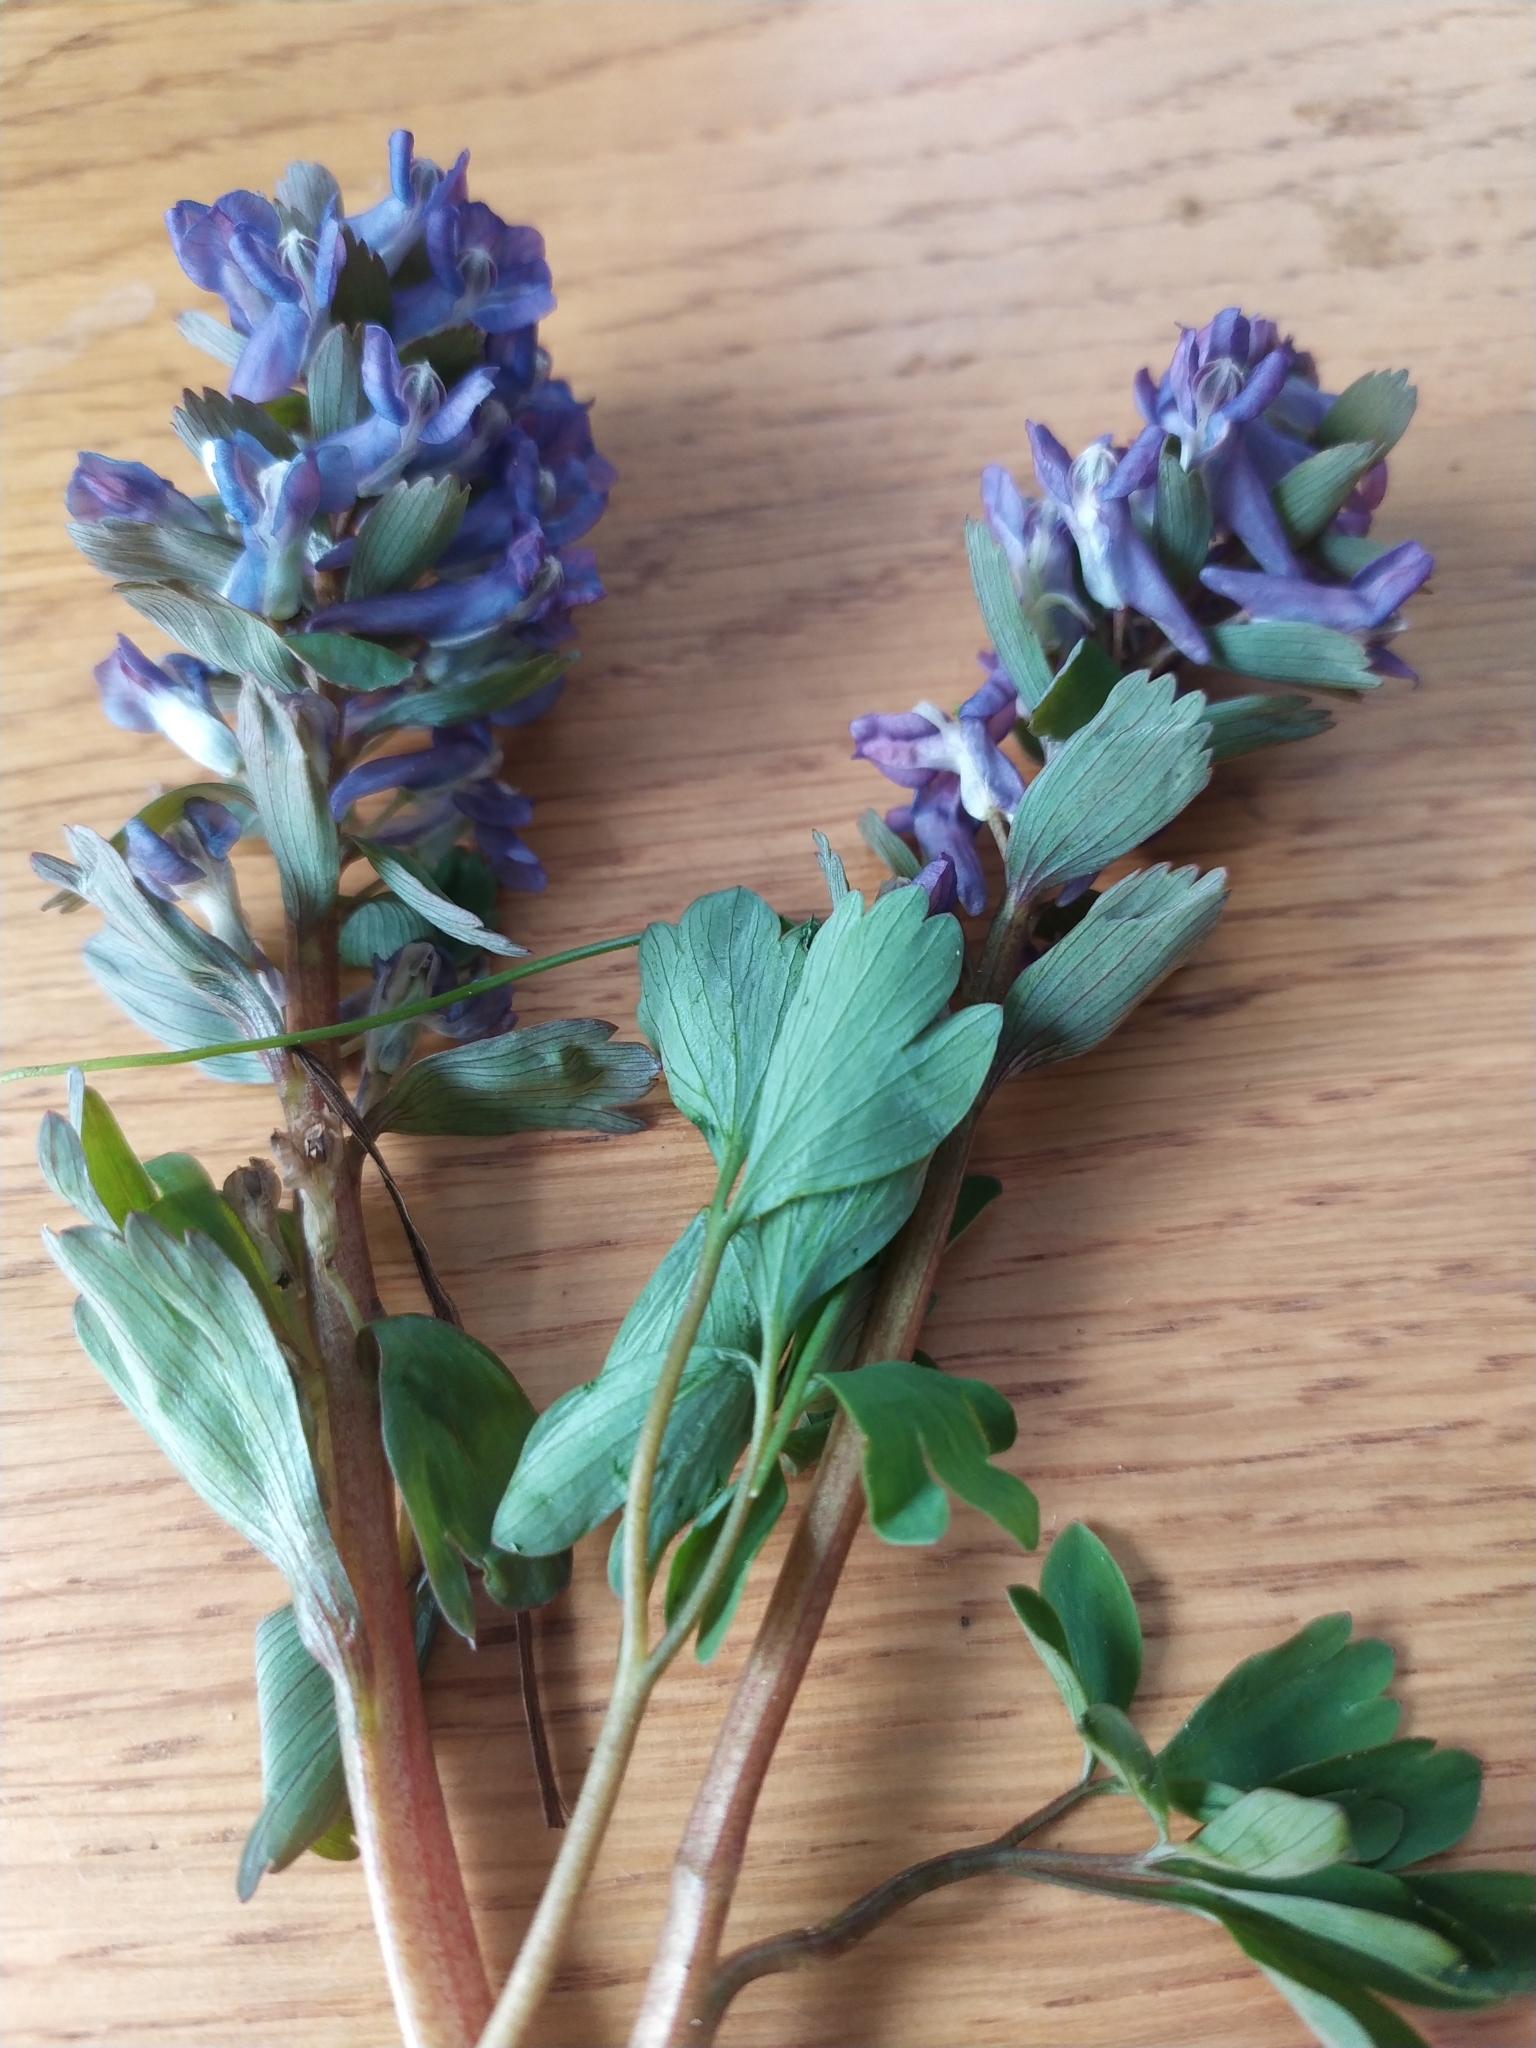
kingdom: Plantae
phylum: Tracheophyta
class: Magnoliopsida
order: Ranunculales
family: Papaveraceae
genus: Corydalis
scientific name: Corydalis solida
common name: Bird-in-a-bush
